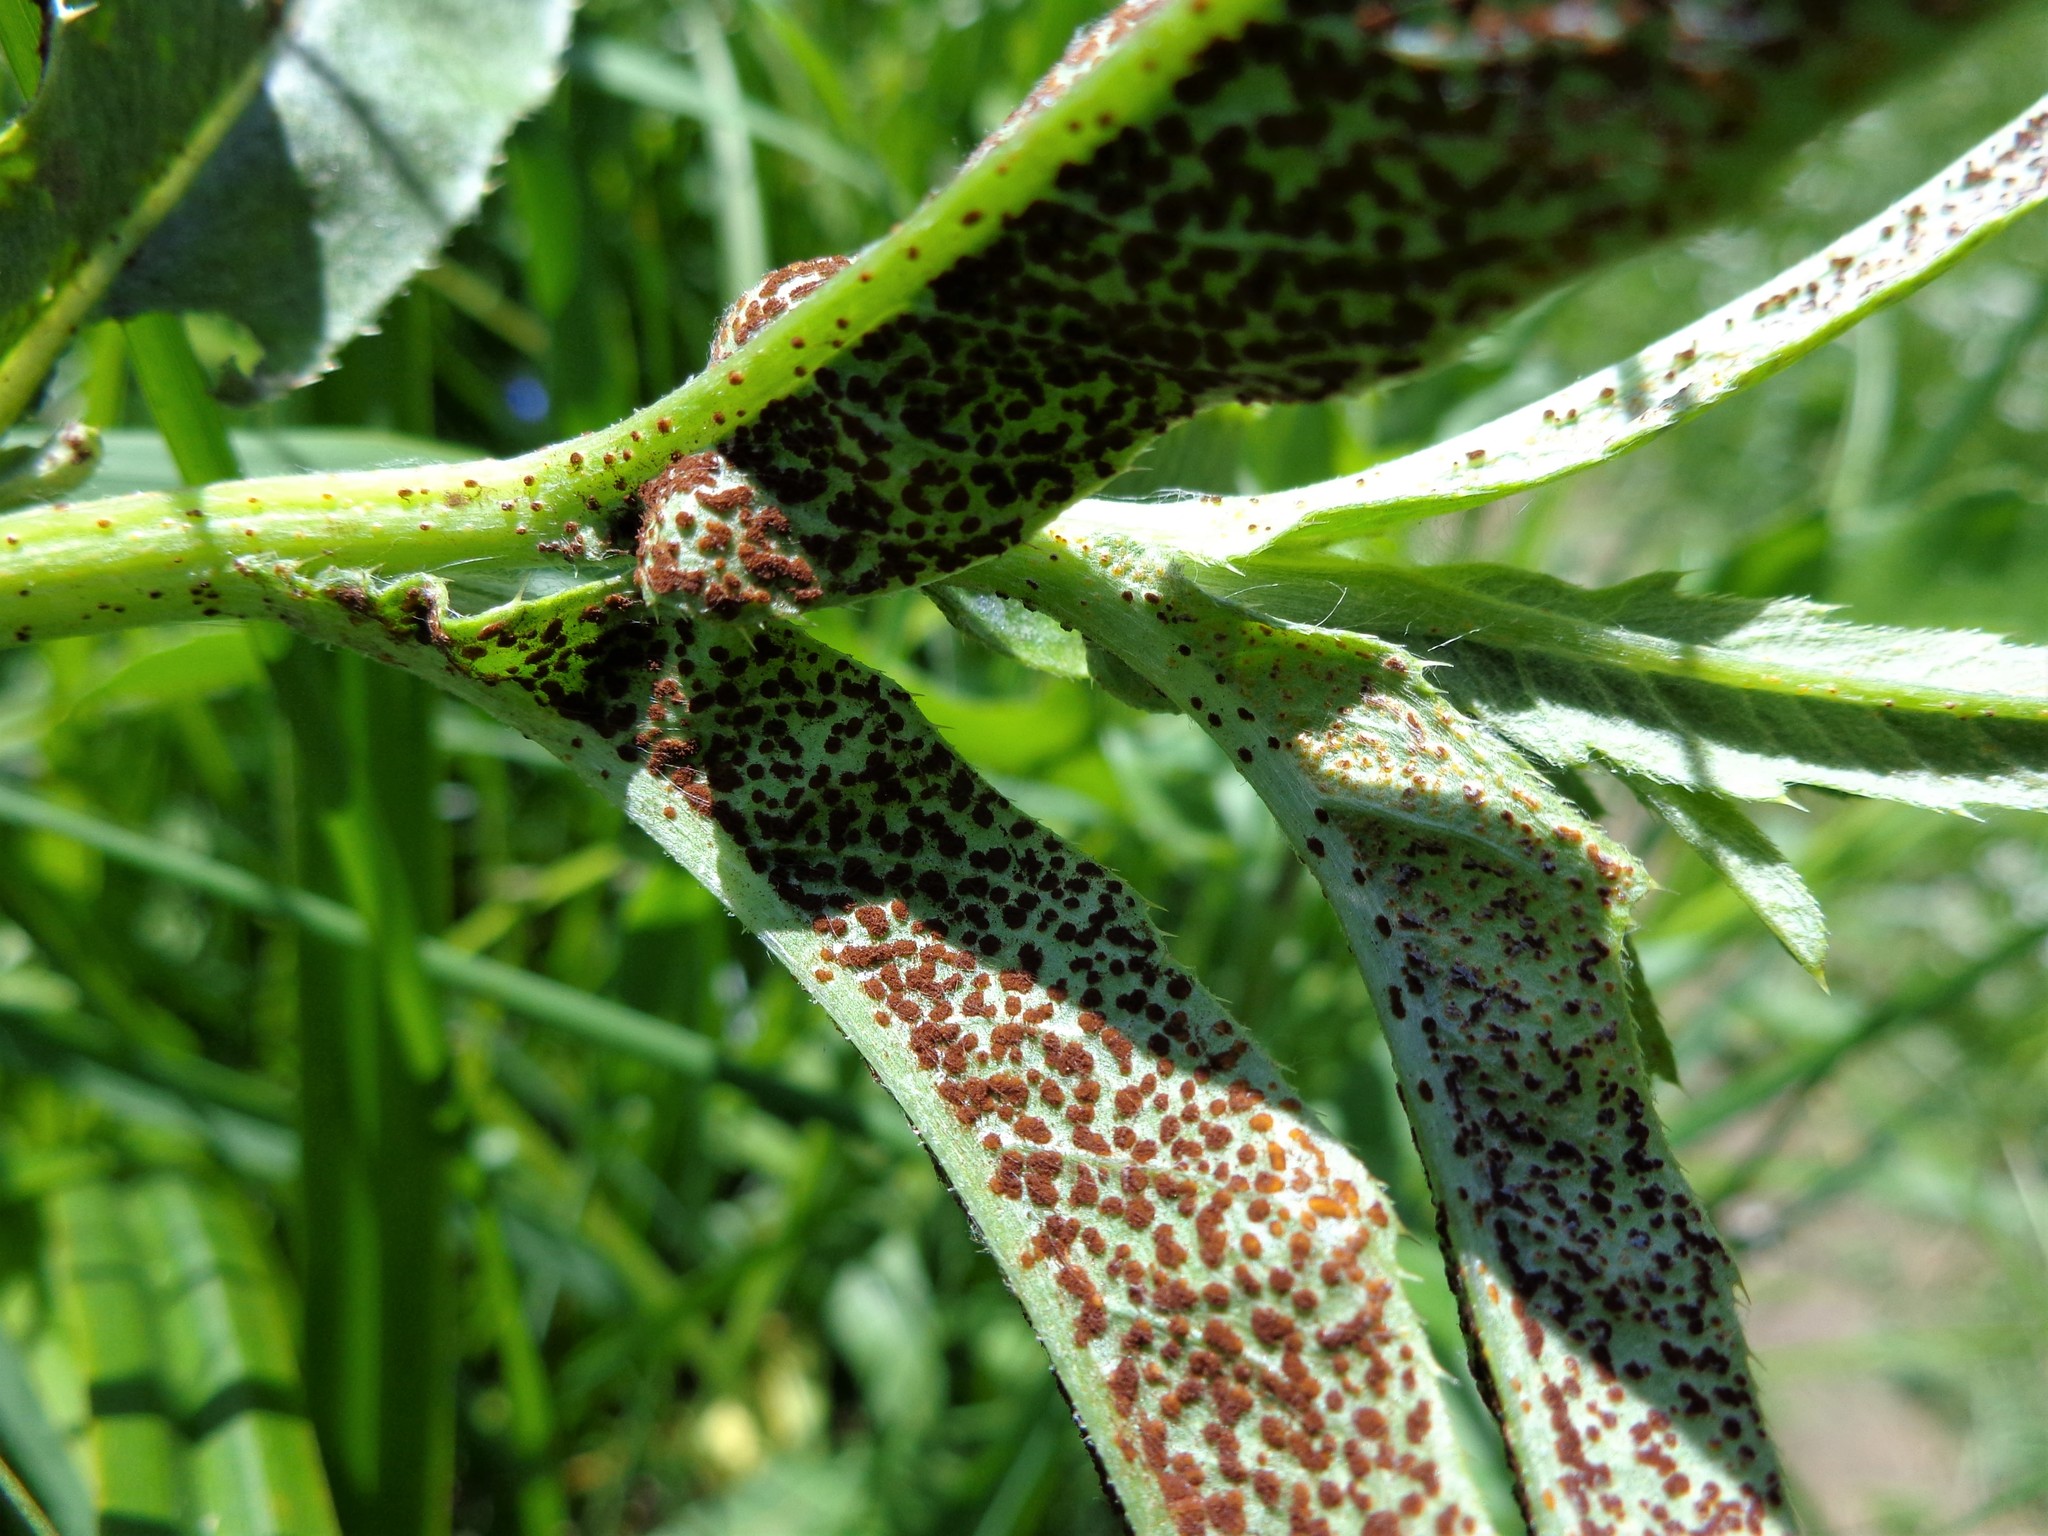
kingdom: Fungi
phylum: Basidiomycota
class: Pucciniomycetes
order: Pucciniales
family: Pucciniaceae
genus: Puccinia
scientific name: Puccinia suaveolens
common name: Thistle rust
